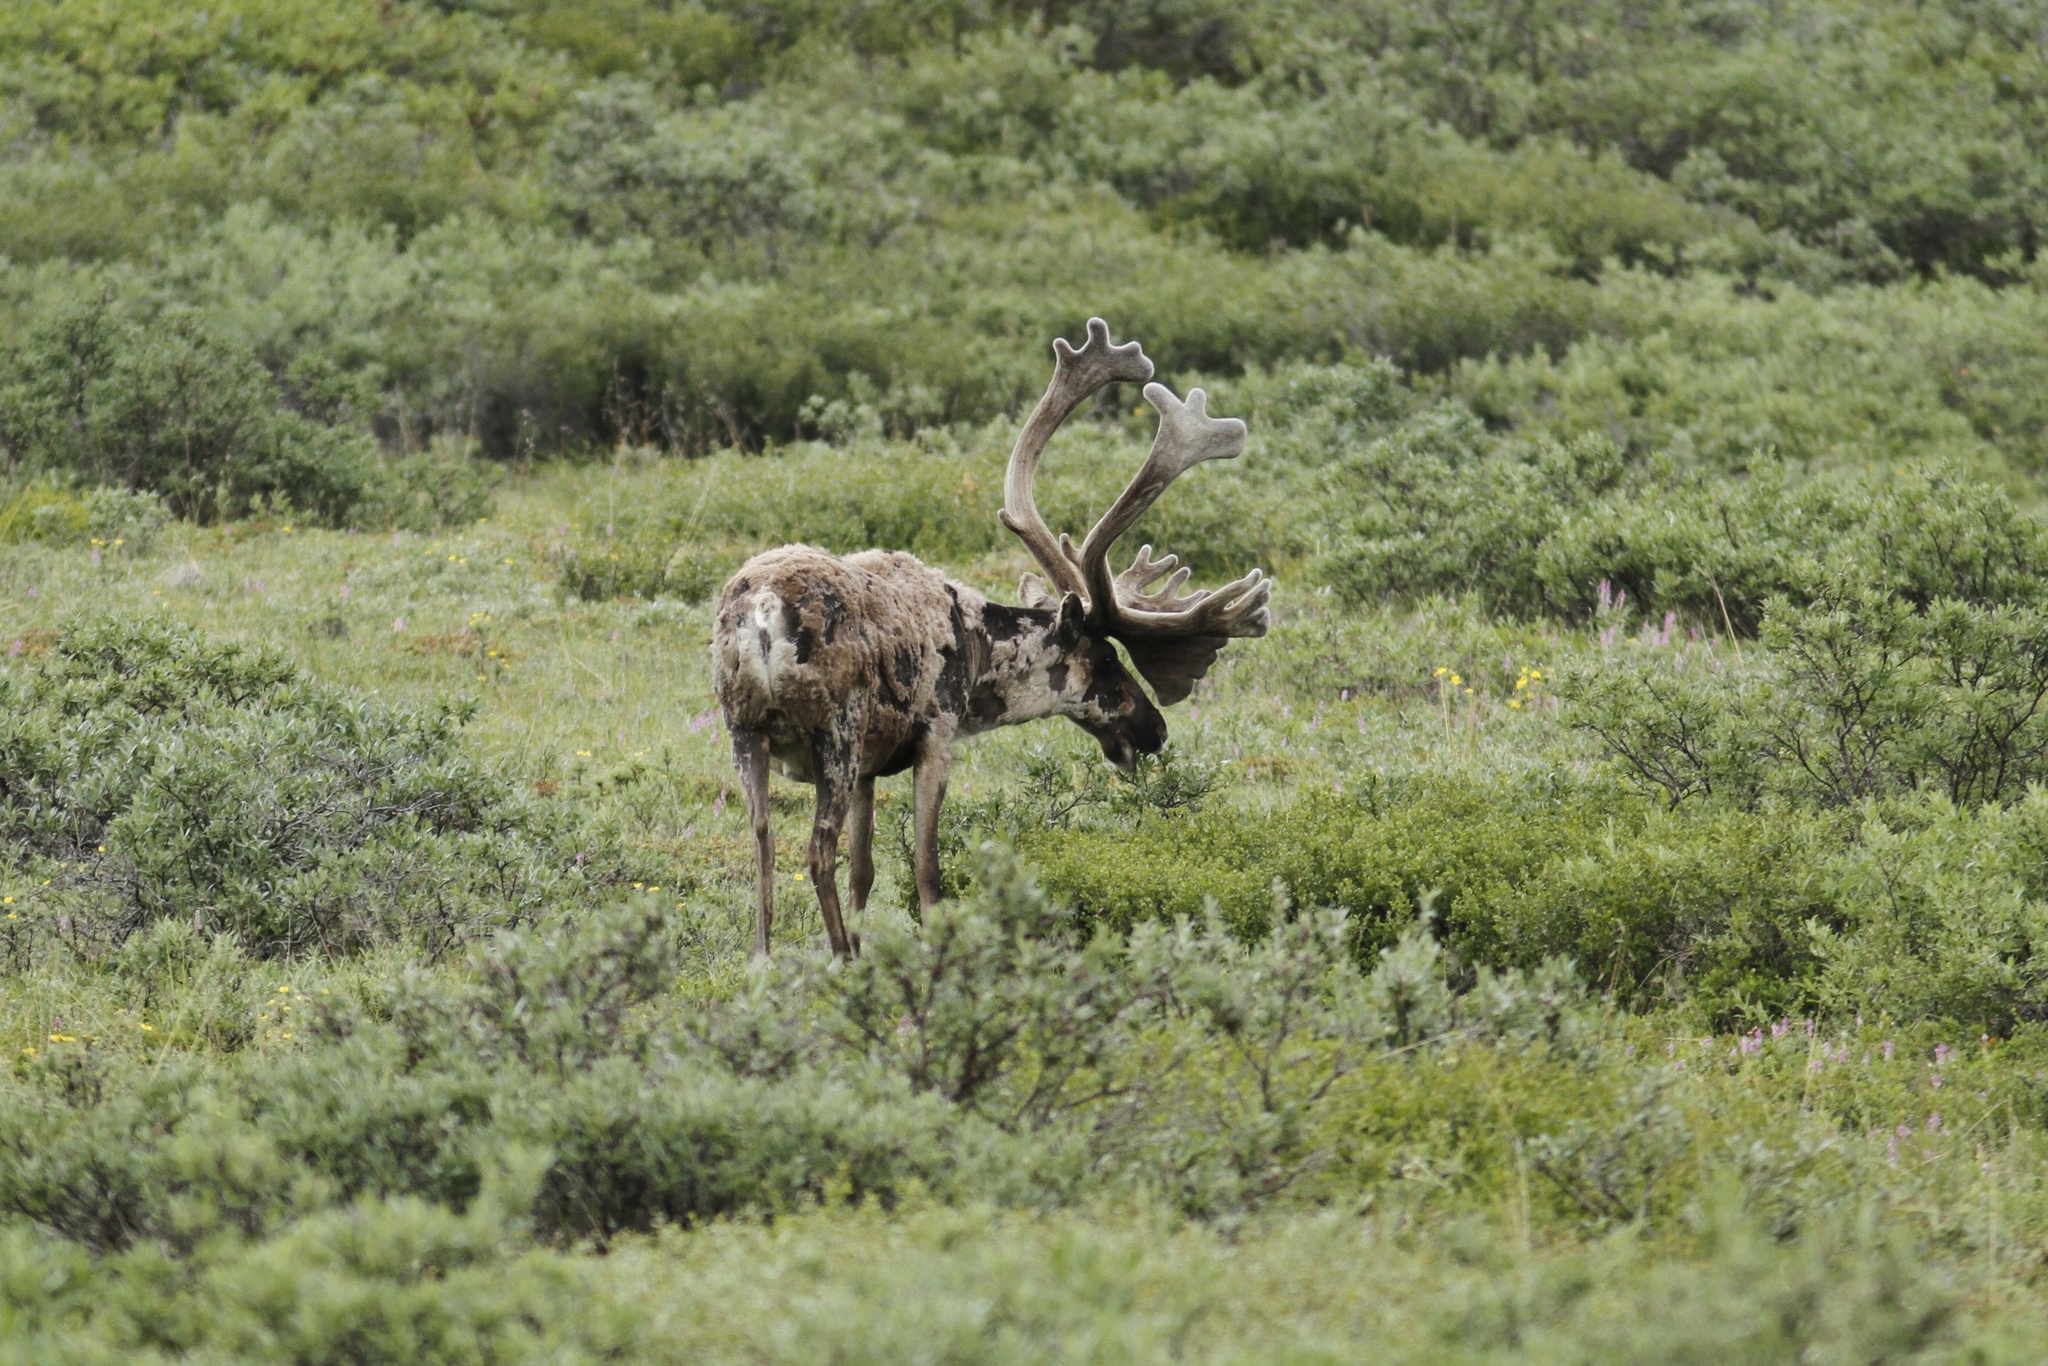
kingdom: Animalia
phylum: Chordata
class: Mammalia
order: Artiodactyla
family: Cervidae
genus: Rangifer
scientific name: Rangifer tarandus
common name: Reindeer
